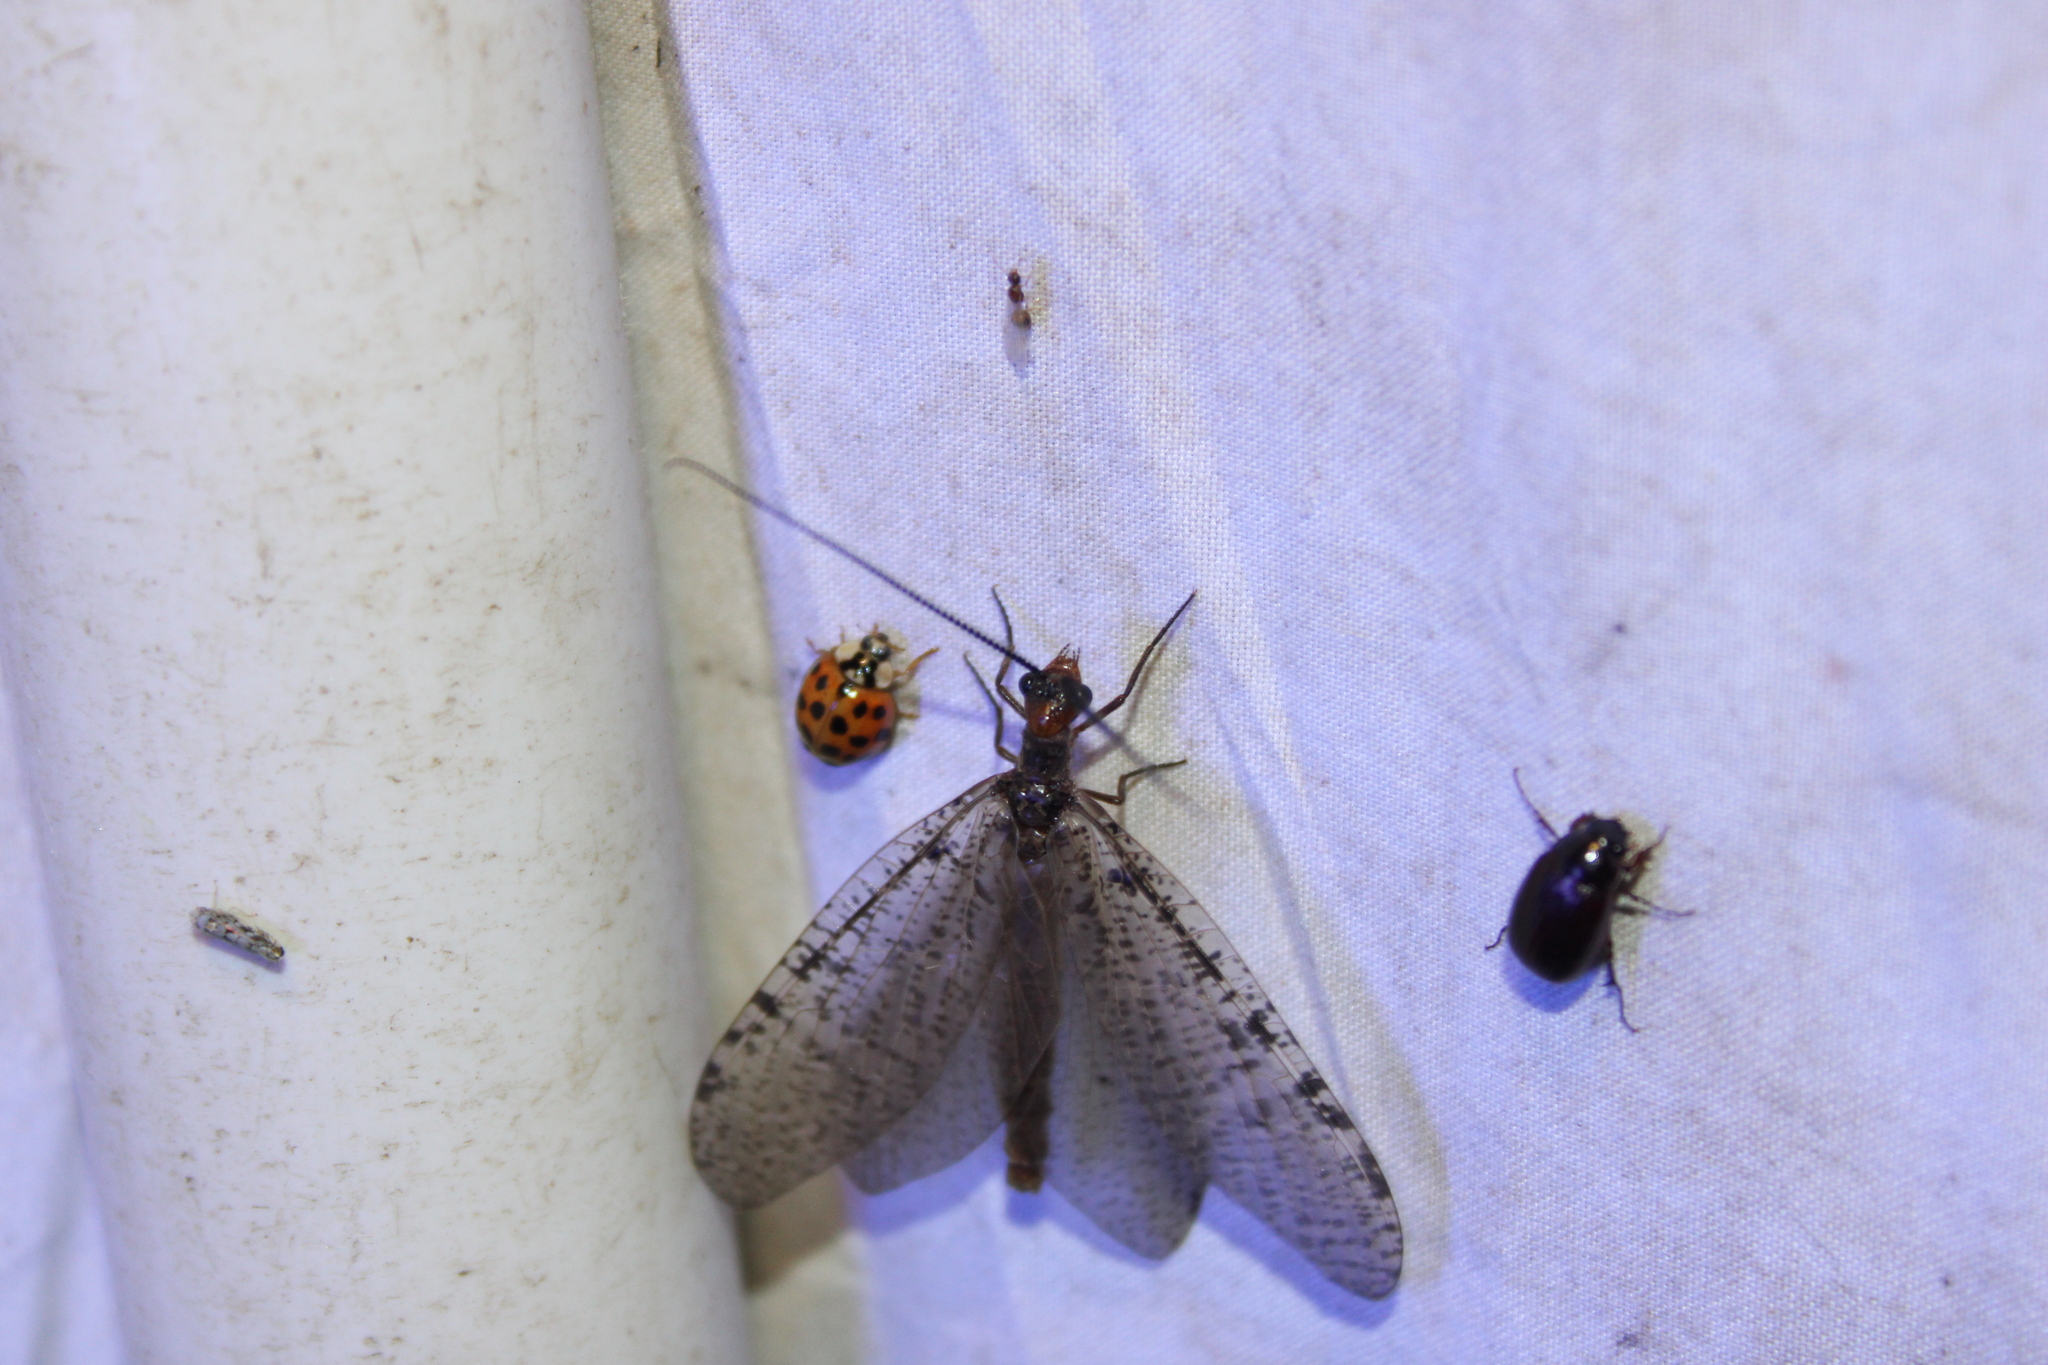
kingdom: Animalia
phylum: Arthropoda
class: Insecta
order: Megaloptera
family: Corydalidae
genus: Neohermes
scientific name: Neohermes concolor
